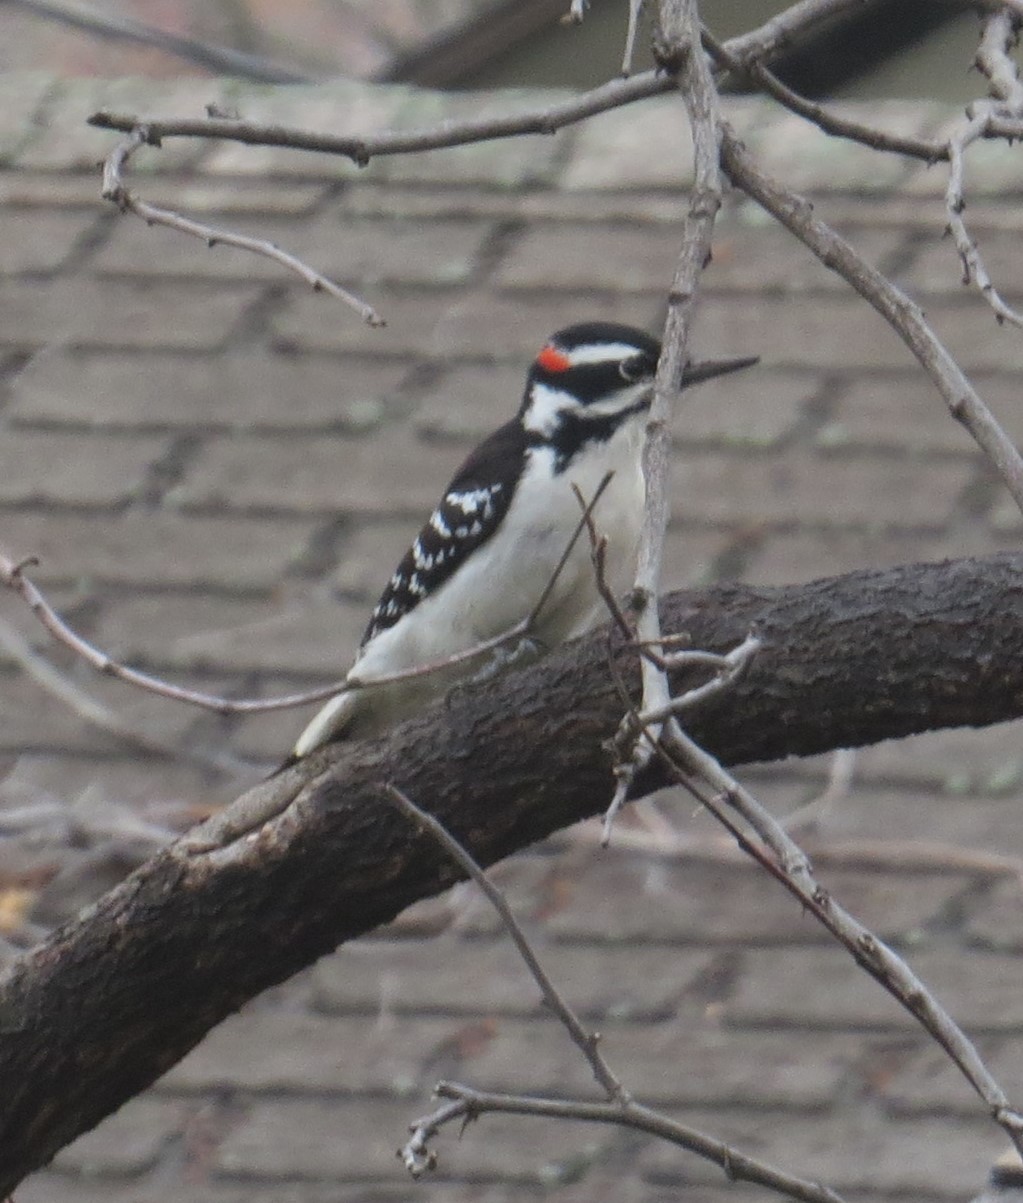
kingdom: Animalia
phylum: Chordata
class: Aves
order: Piciformes
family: Picidae
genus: Leuconotopicus
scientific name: Leuconotopicus villosus
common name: Hairy woodpecker
